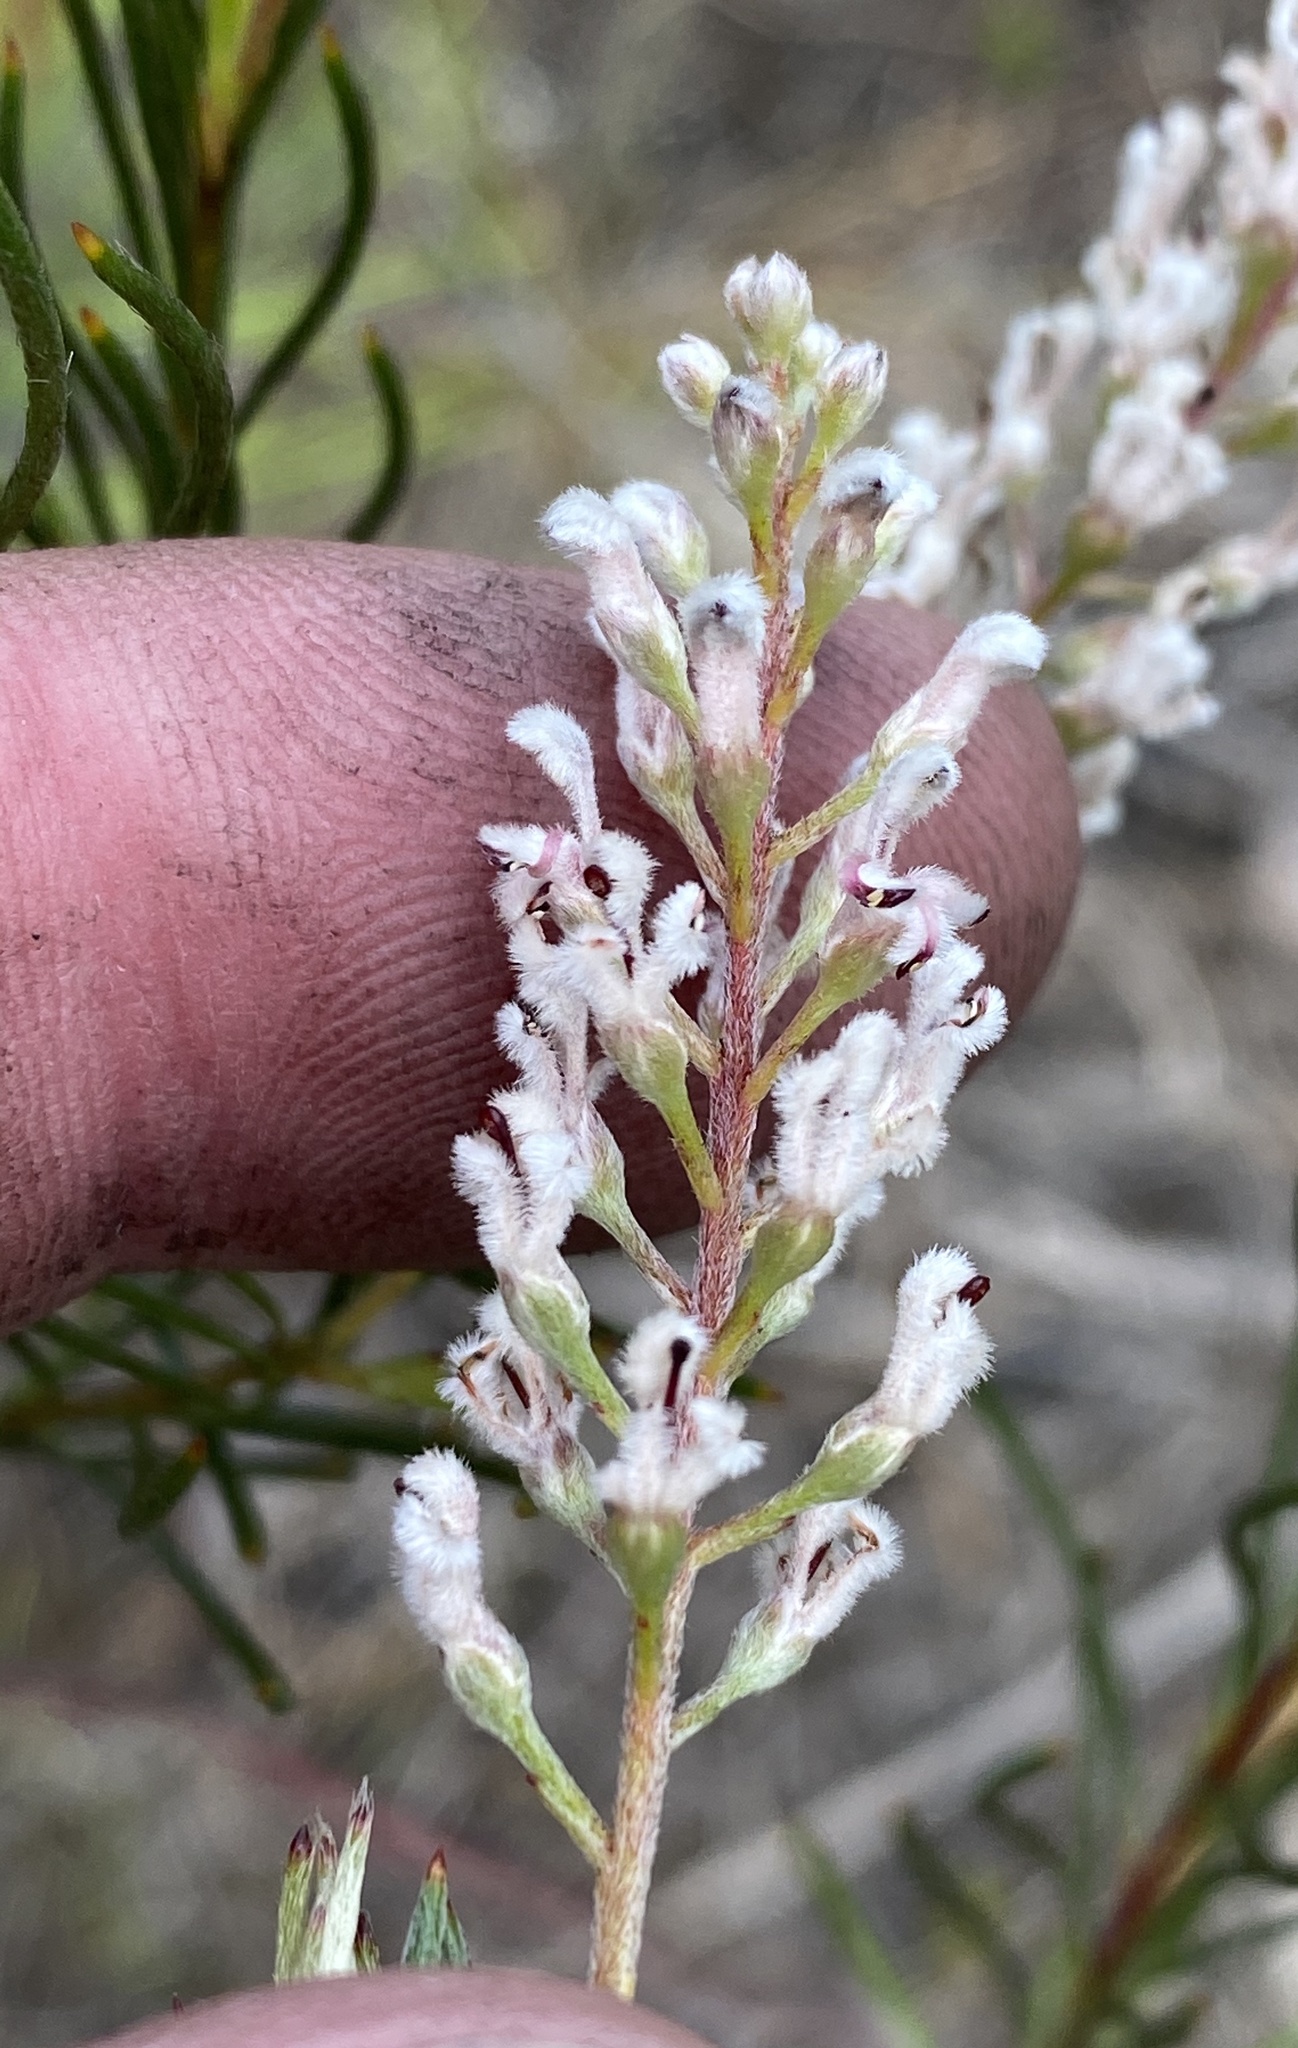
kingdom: Plantae
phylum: Tracheophyta
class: Magnoliopsida
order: Proteales
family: Proteaceae
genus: Spatalla
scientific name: Spatalla racemosa
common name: Lax-stalked spoon
